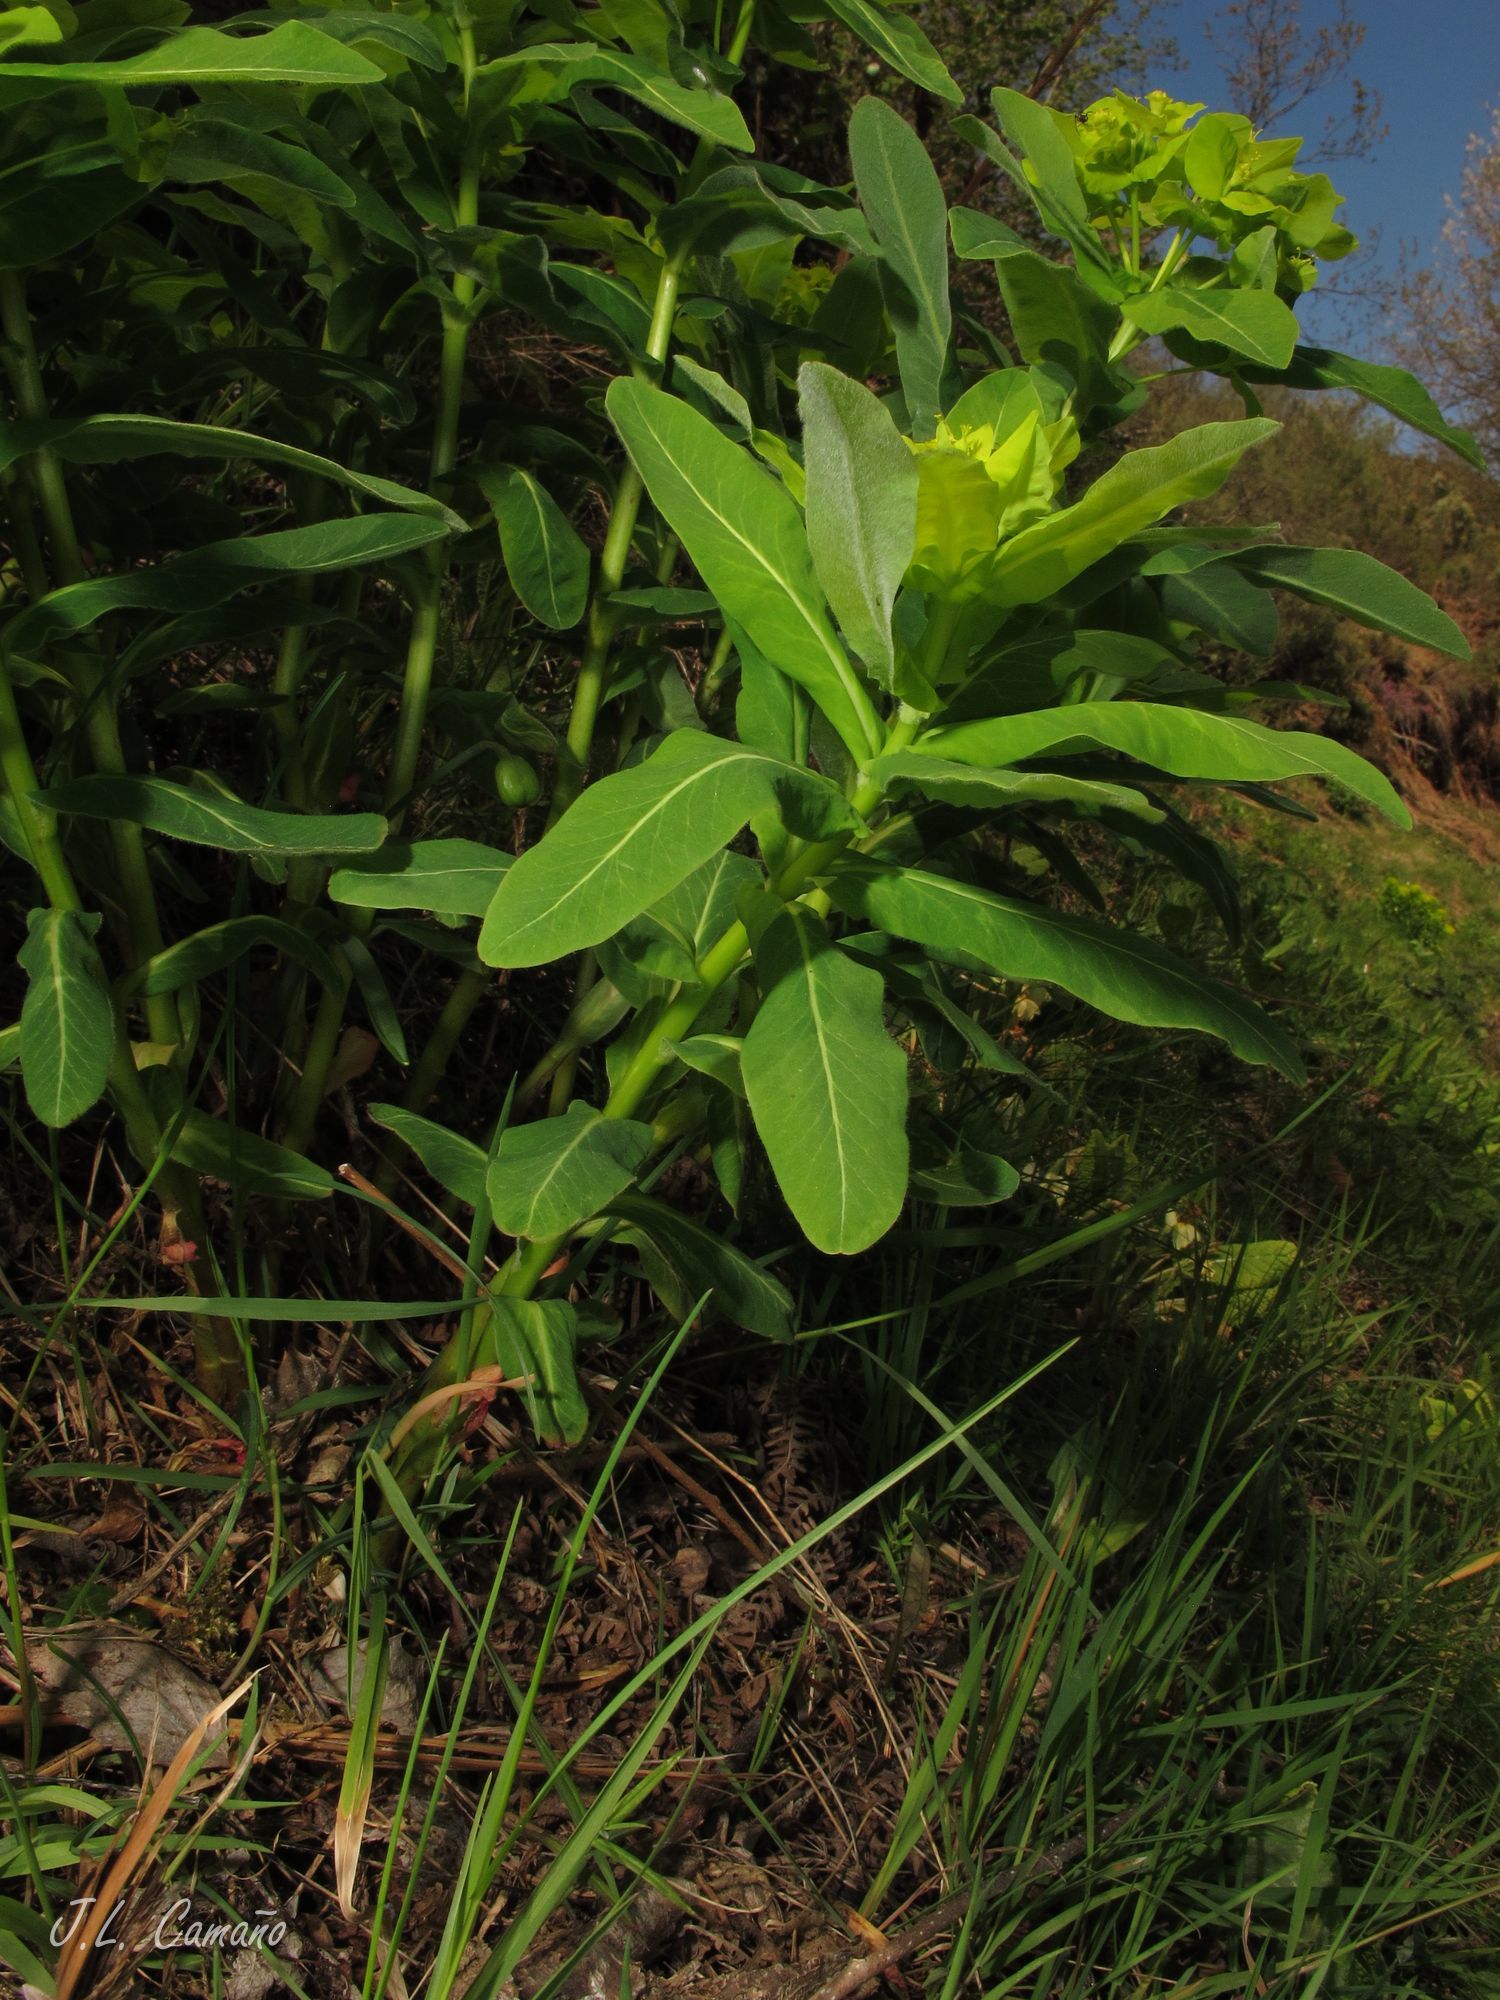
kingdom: Plantae
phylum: Tracheophyta
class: Magnoliopsida
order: Malpighiales
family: Euphorbiaceae
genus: Euphorbia
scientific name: Euphorbia hyberna
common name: Irish spurge
